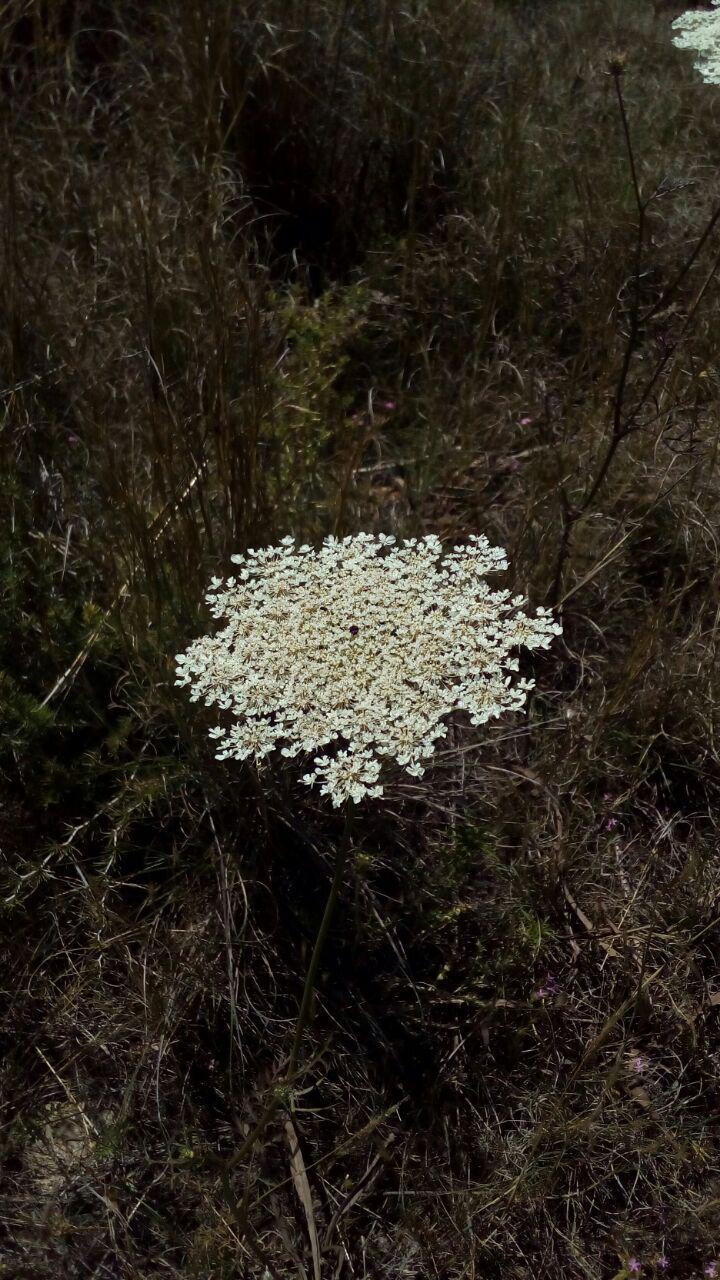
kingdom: Plantae
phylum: Tracheophyta
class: Magnoliopsida
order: Apiales
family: Apiaceae
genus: Daucus
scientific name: Daucus carota
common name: Wild carrot
